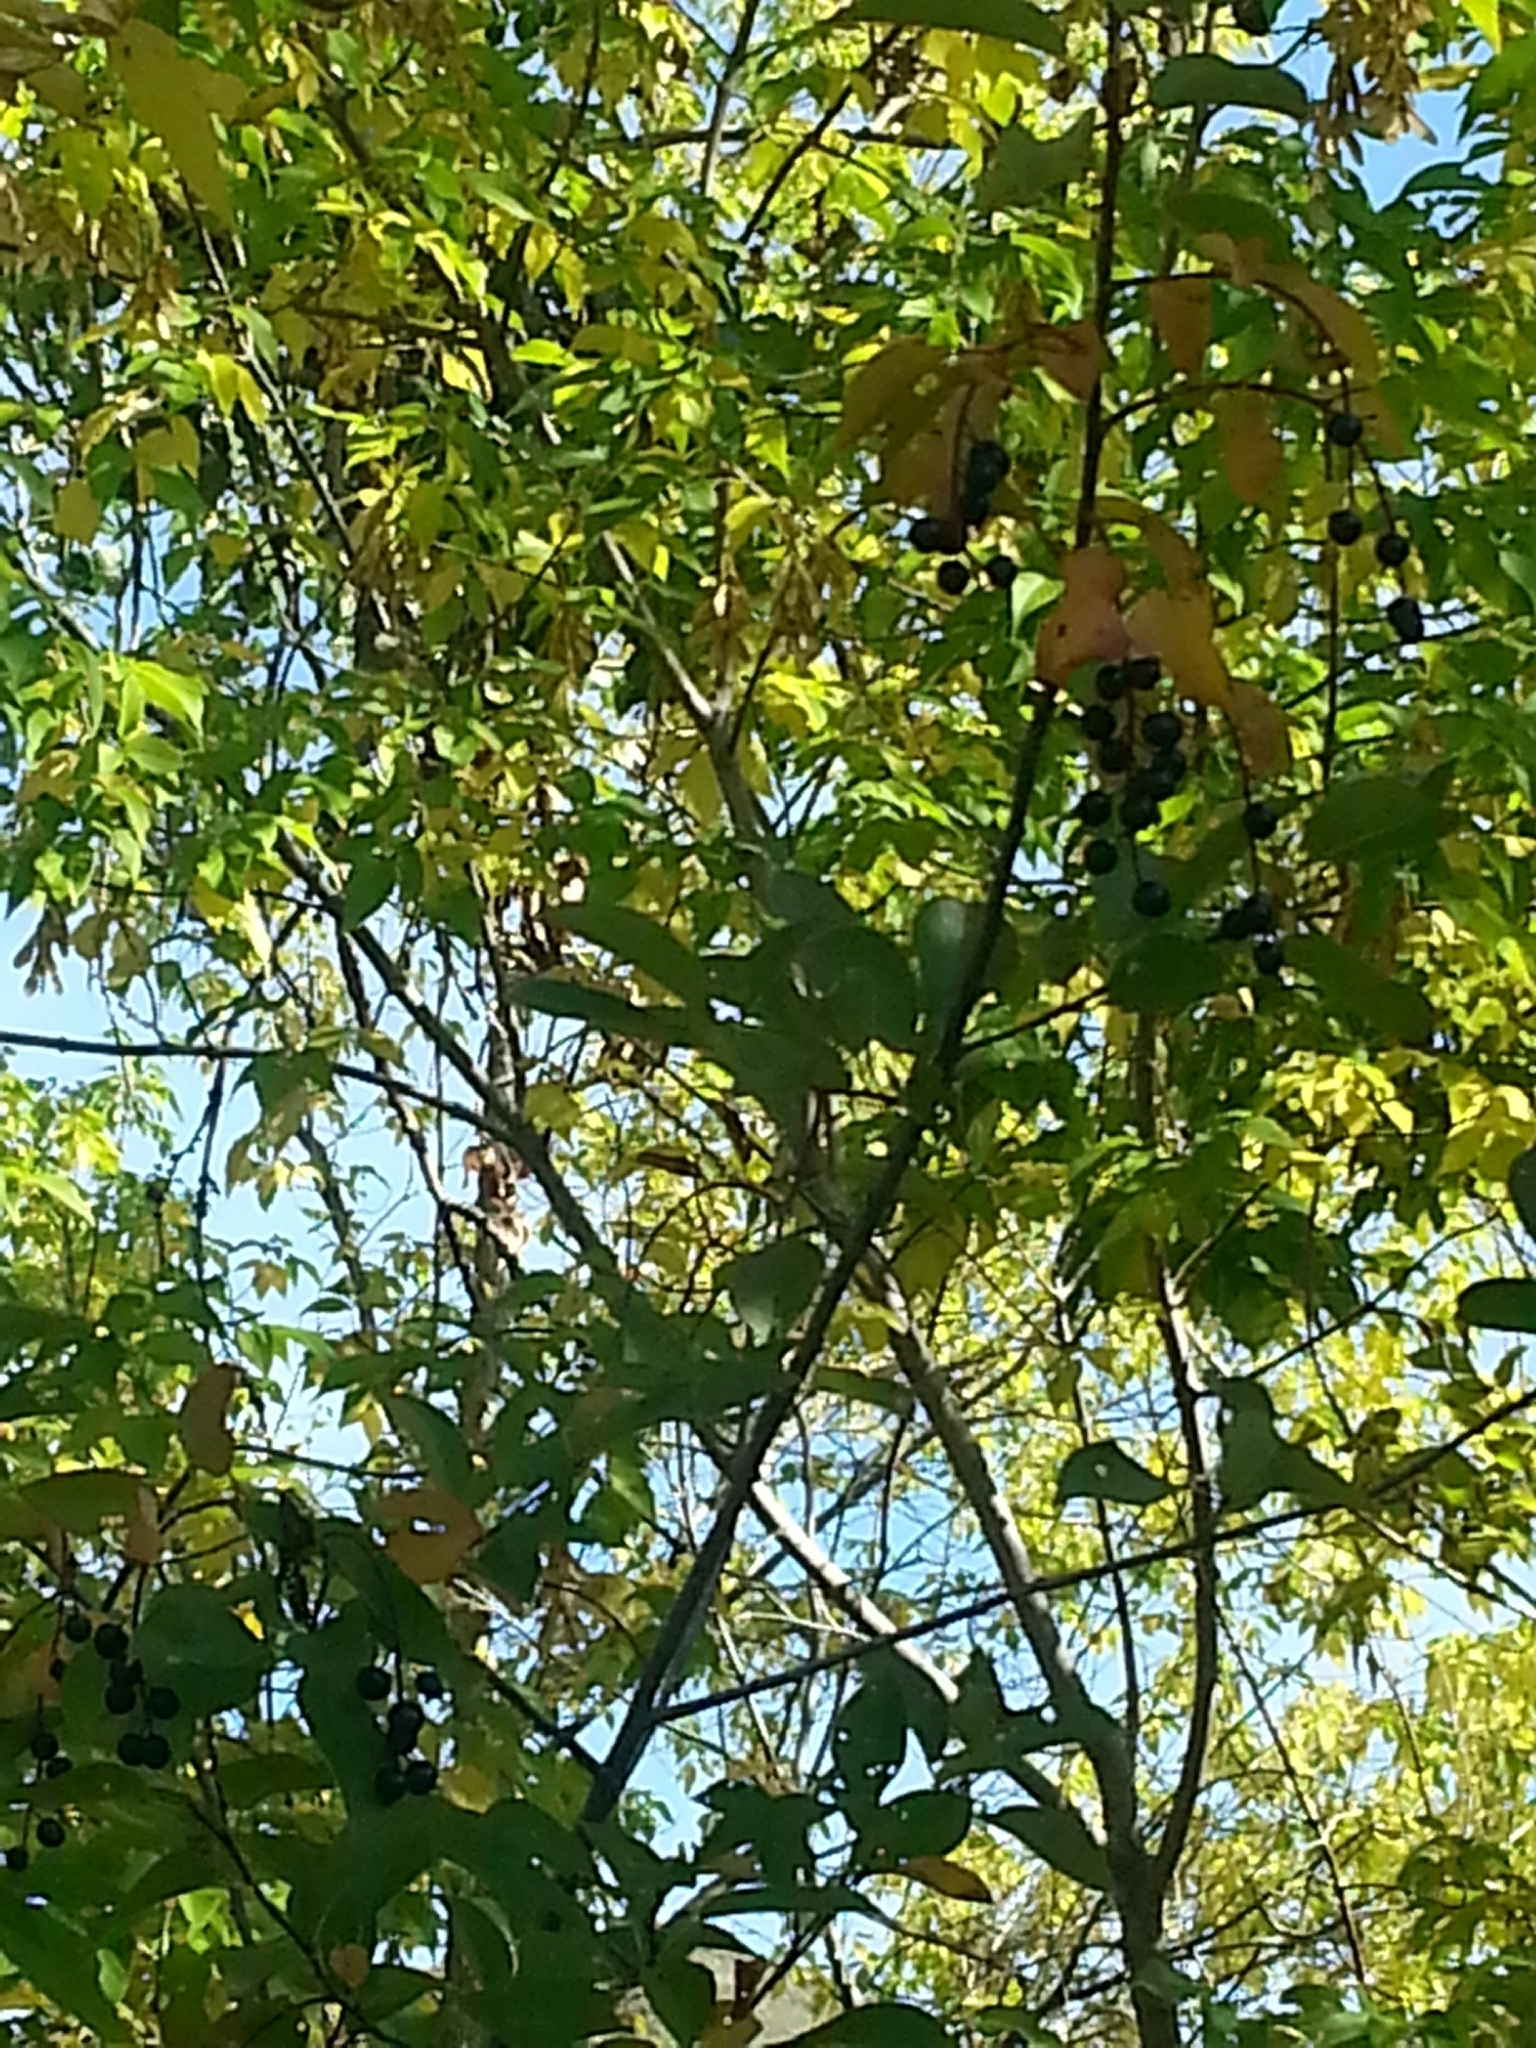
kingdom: Plantae
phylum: Tracheophyta
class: Magnoliopsida
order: Rosales
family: Rosaceae
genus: Prunus
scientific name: Prunus virginiana
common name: Chokecherry
